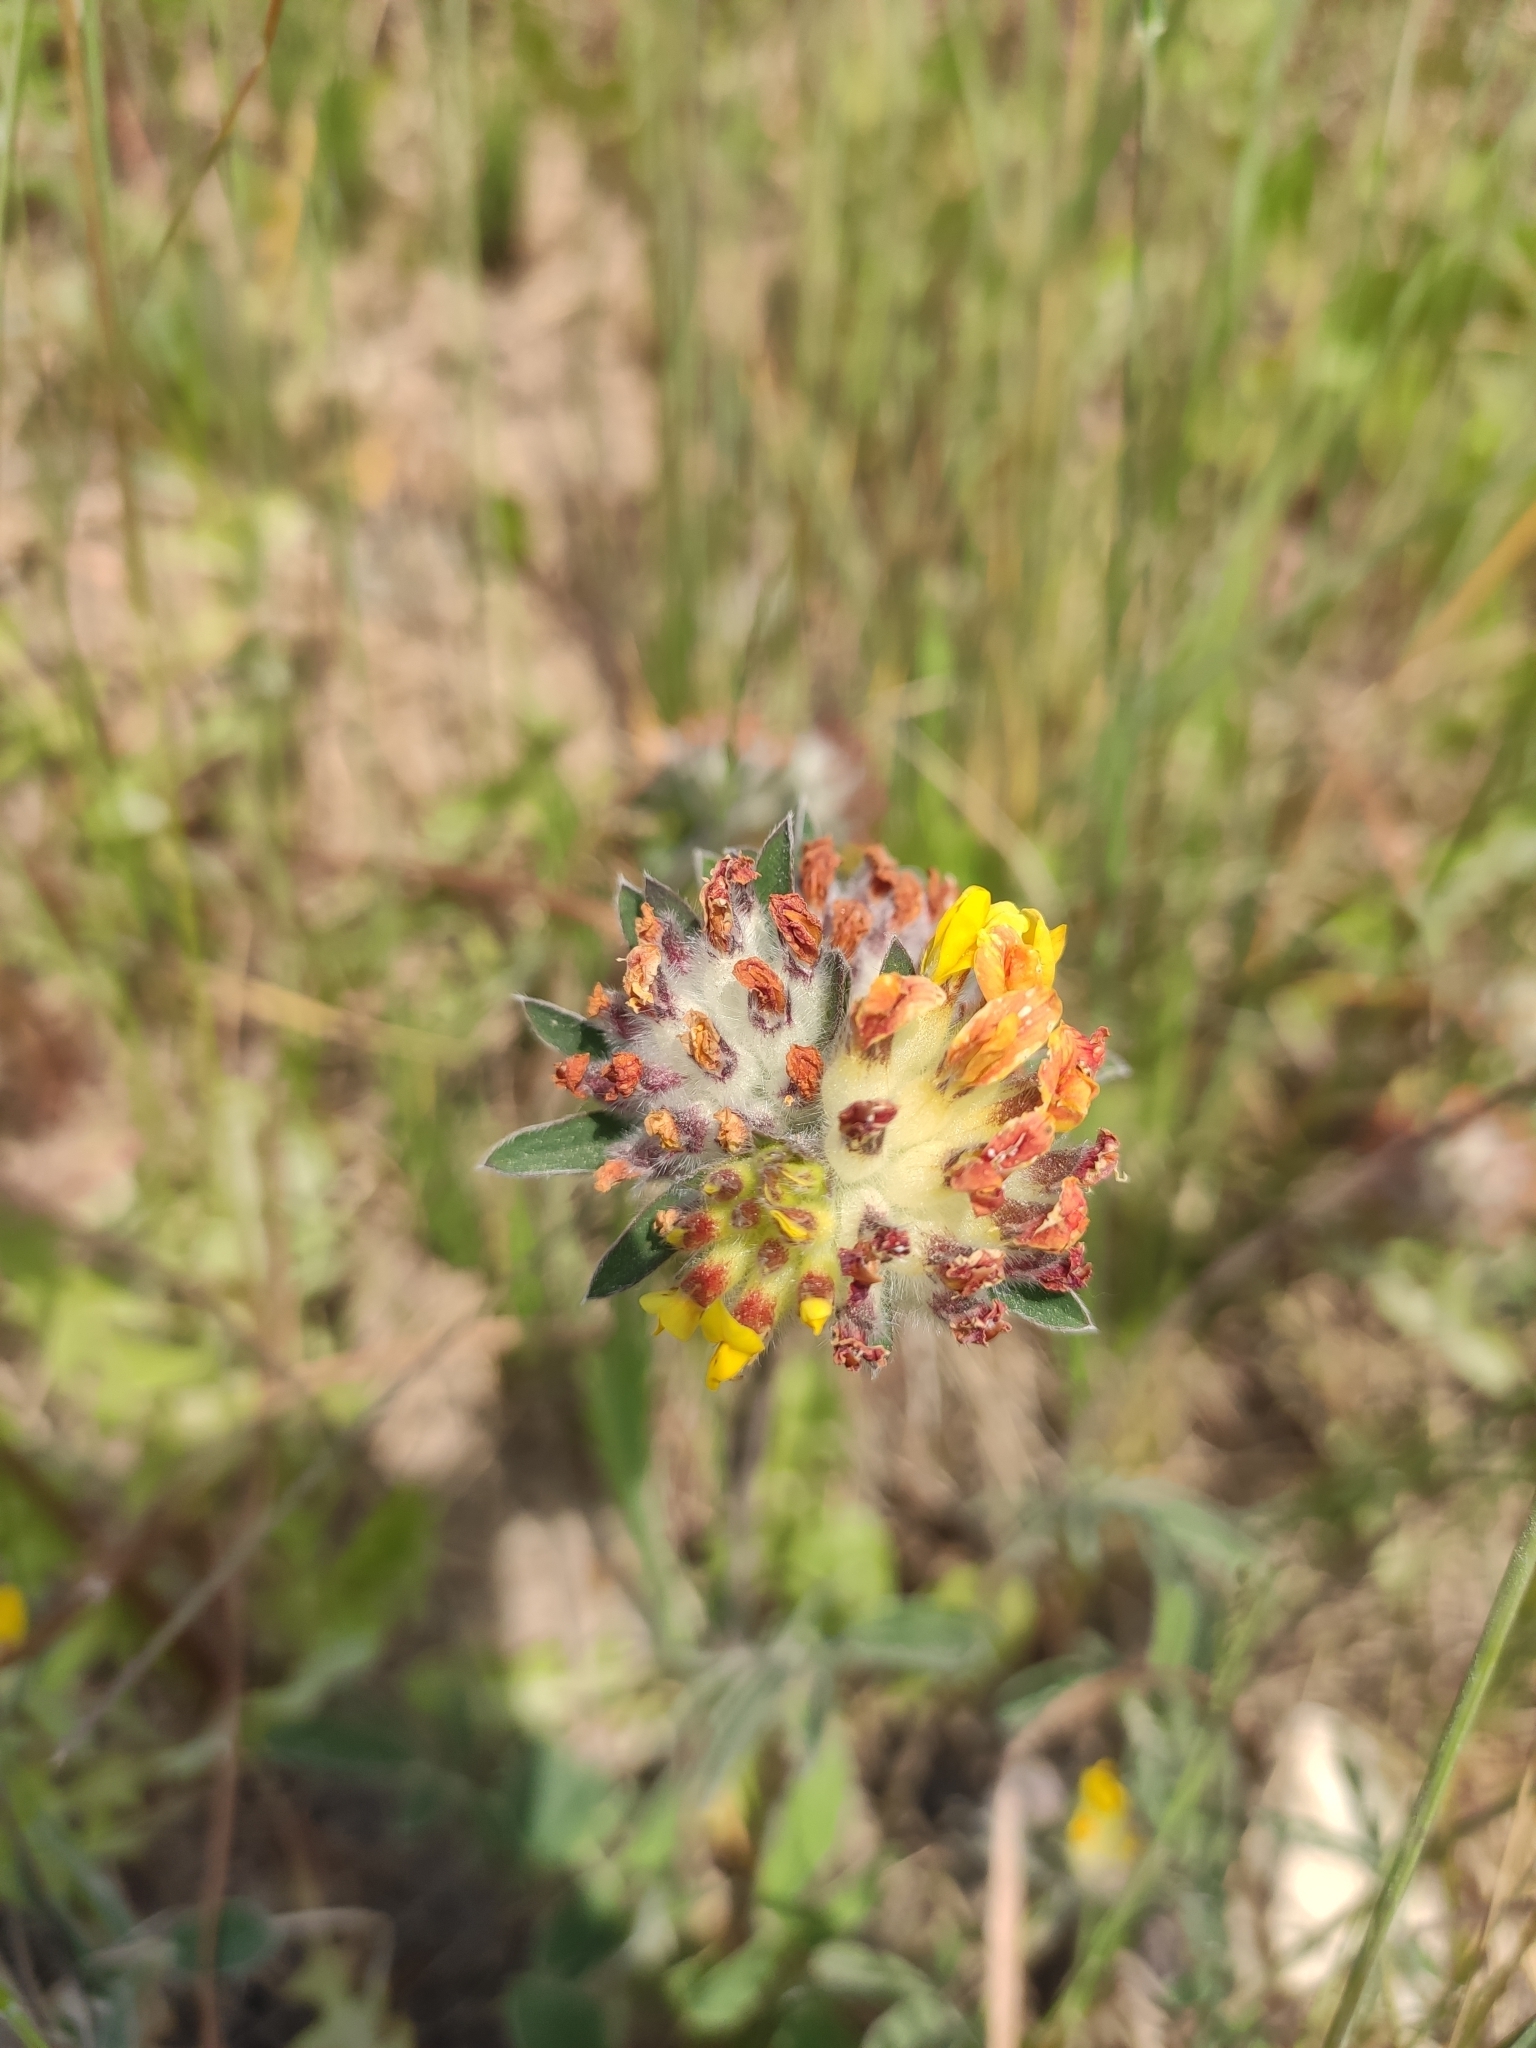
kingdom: Plantae
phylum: Tracheophyta
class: Magnoliopsida
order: Fabales
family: Fabaceae
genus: Anthyllis
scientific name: Anthyllis vulneraria
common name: Kidney vetch
